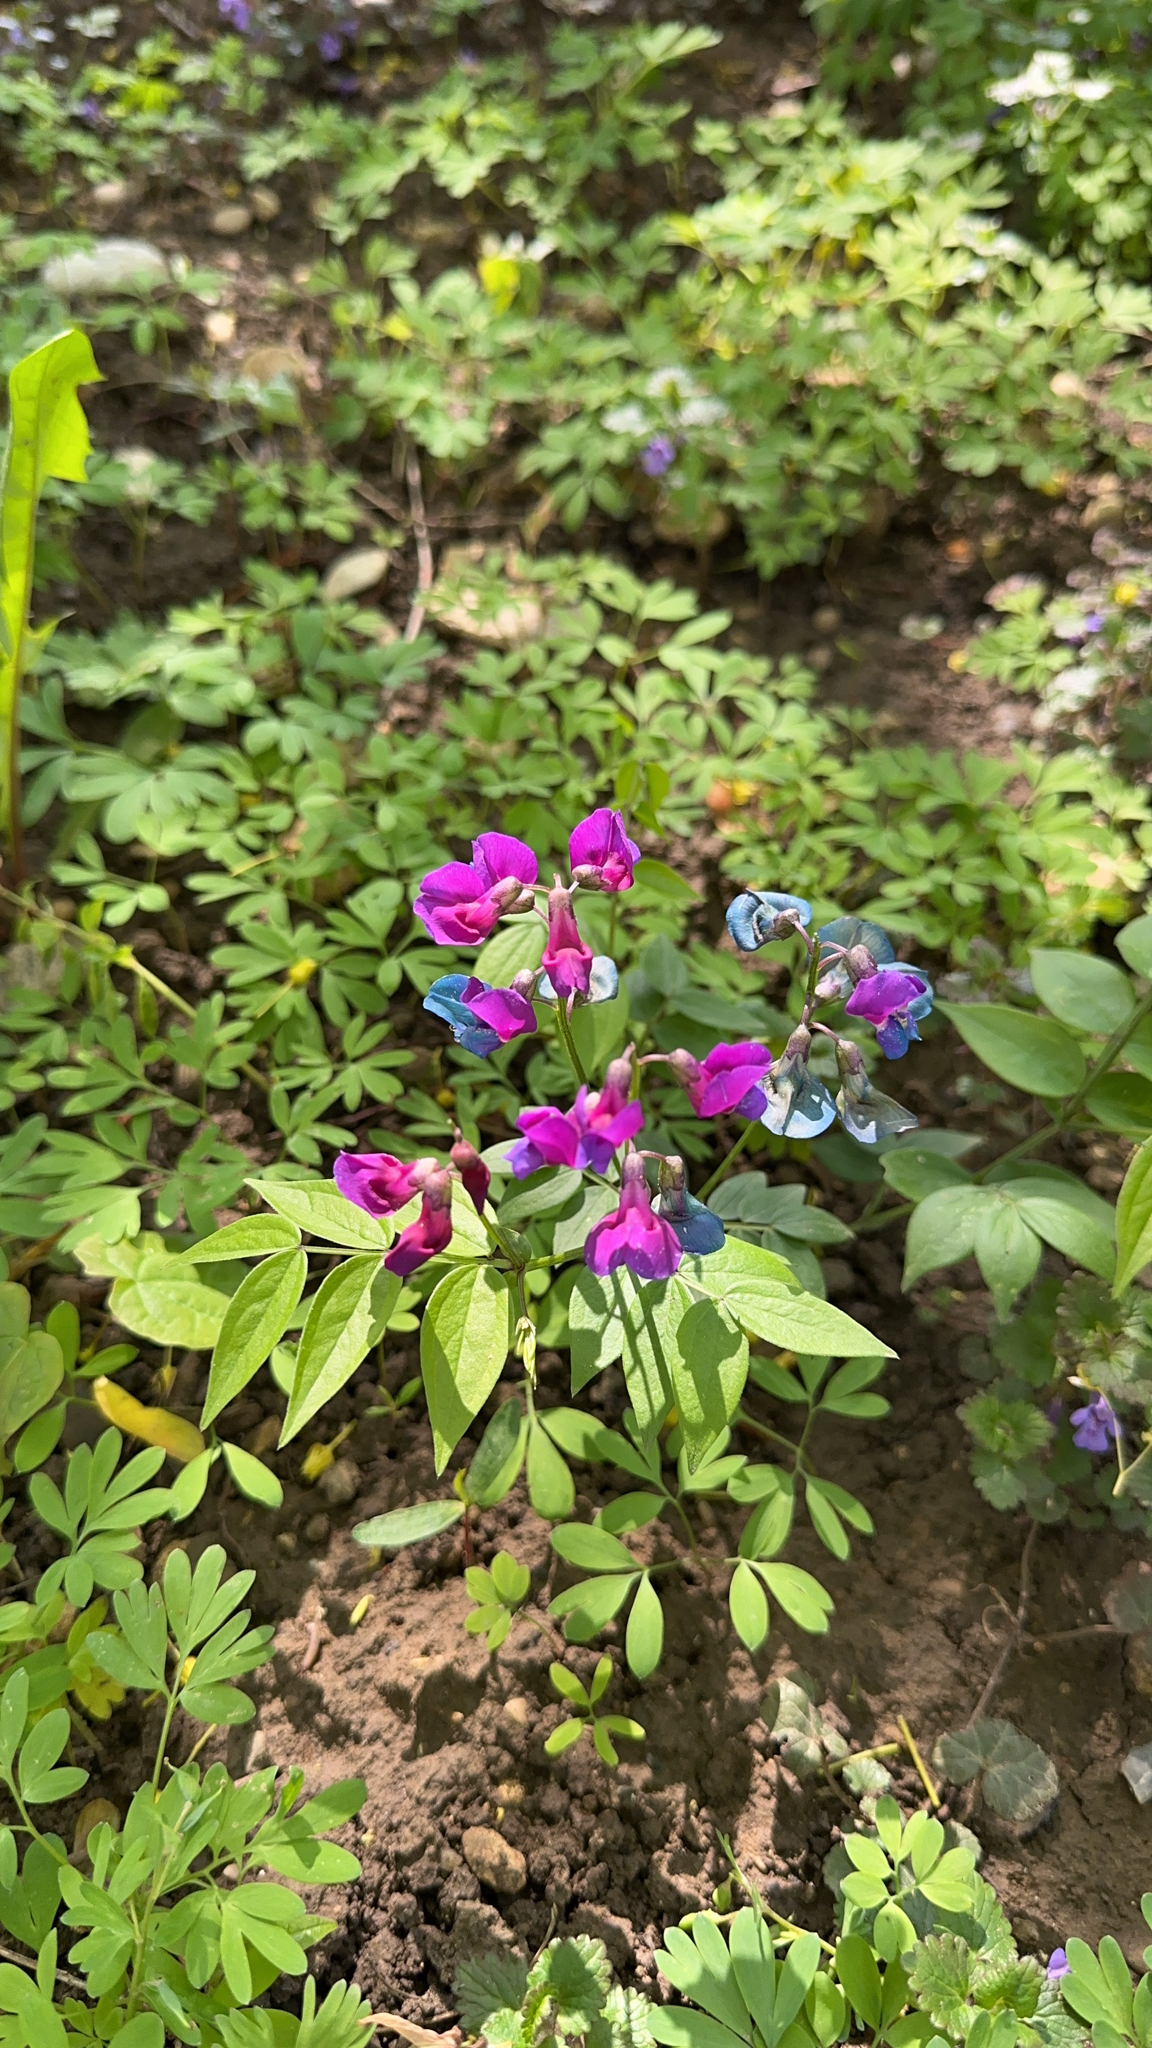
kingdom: Plantae
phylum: Tracheophyta
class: Magnoliopsida
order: Fabales
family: Fabaceae
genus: Lathyrus
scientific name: Lathyrus vernus
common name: Spring pea
